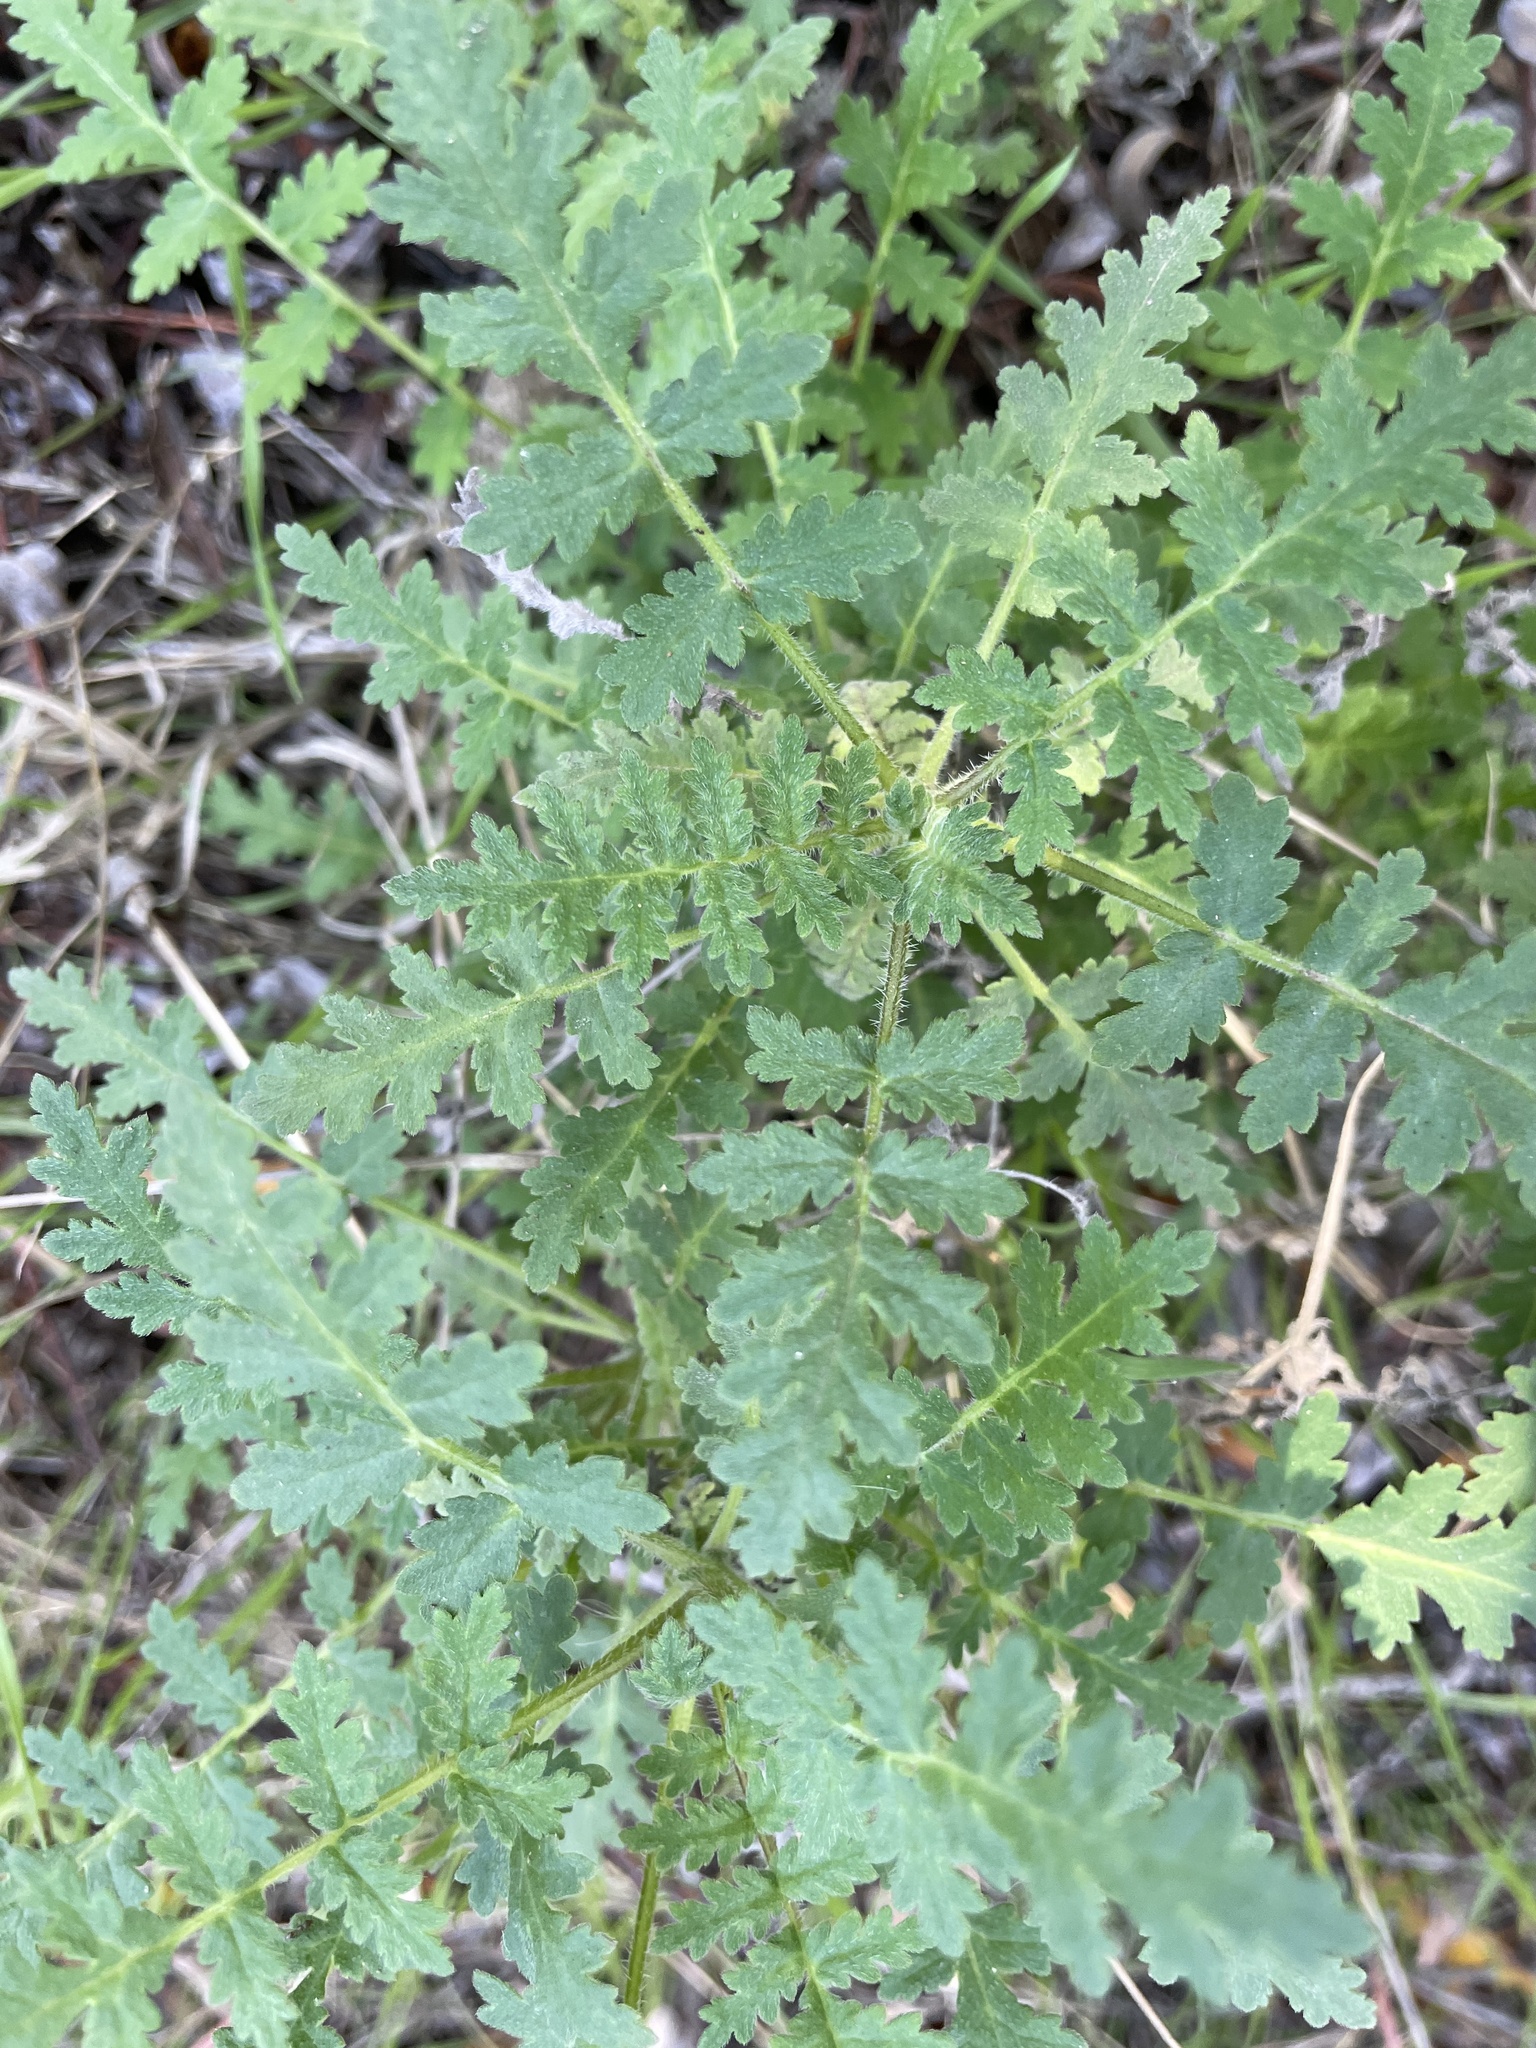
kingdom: Plantae
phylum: Tracheophyta
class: Magnoliopsida
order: Boraginales
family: Hydrophyllaceae
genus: Phacelia
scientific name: Phacelia ramosissima
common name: Branching phacelia
